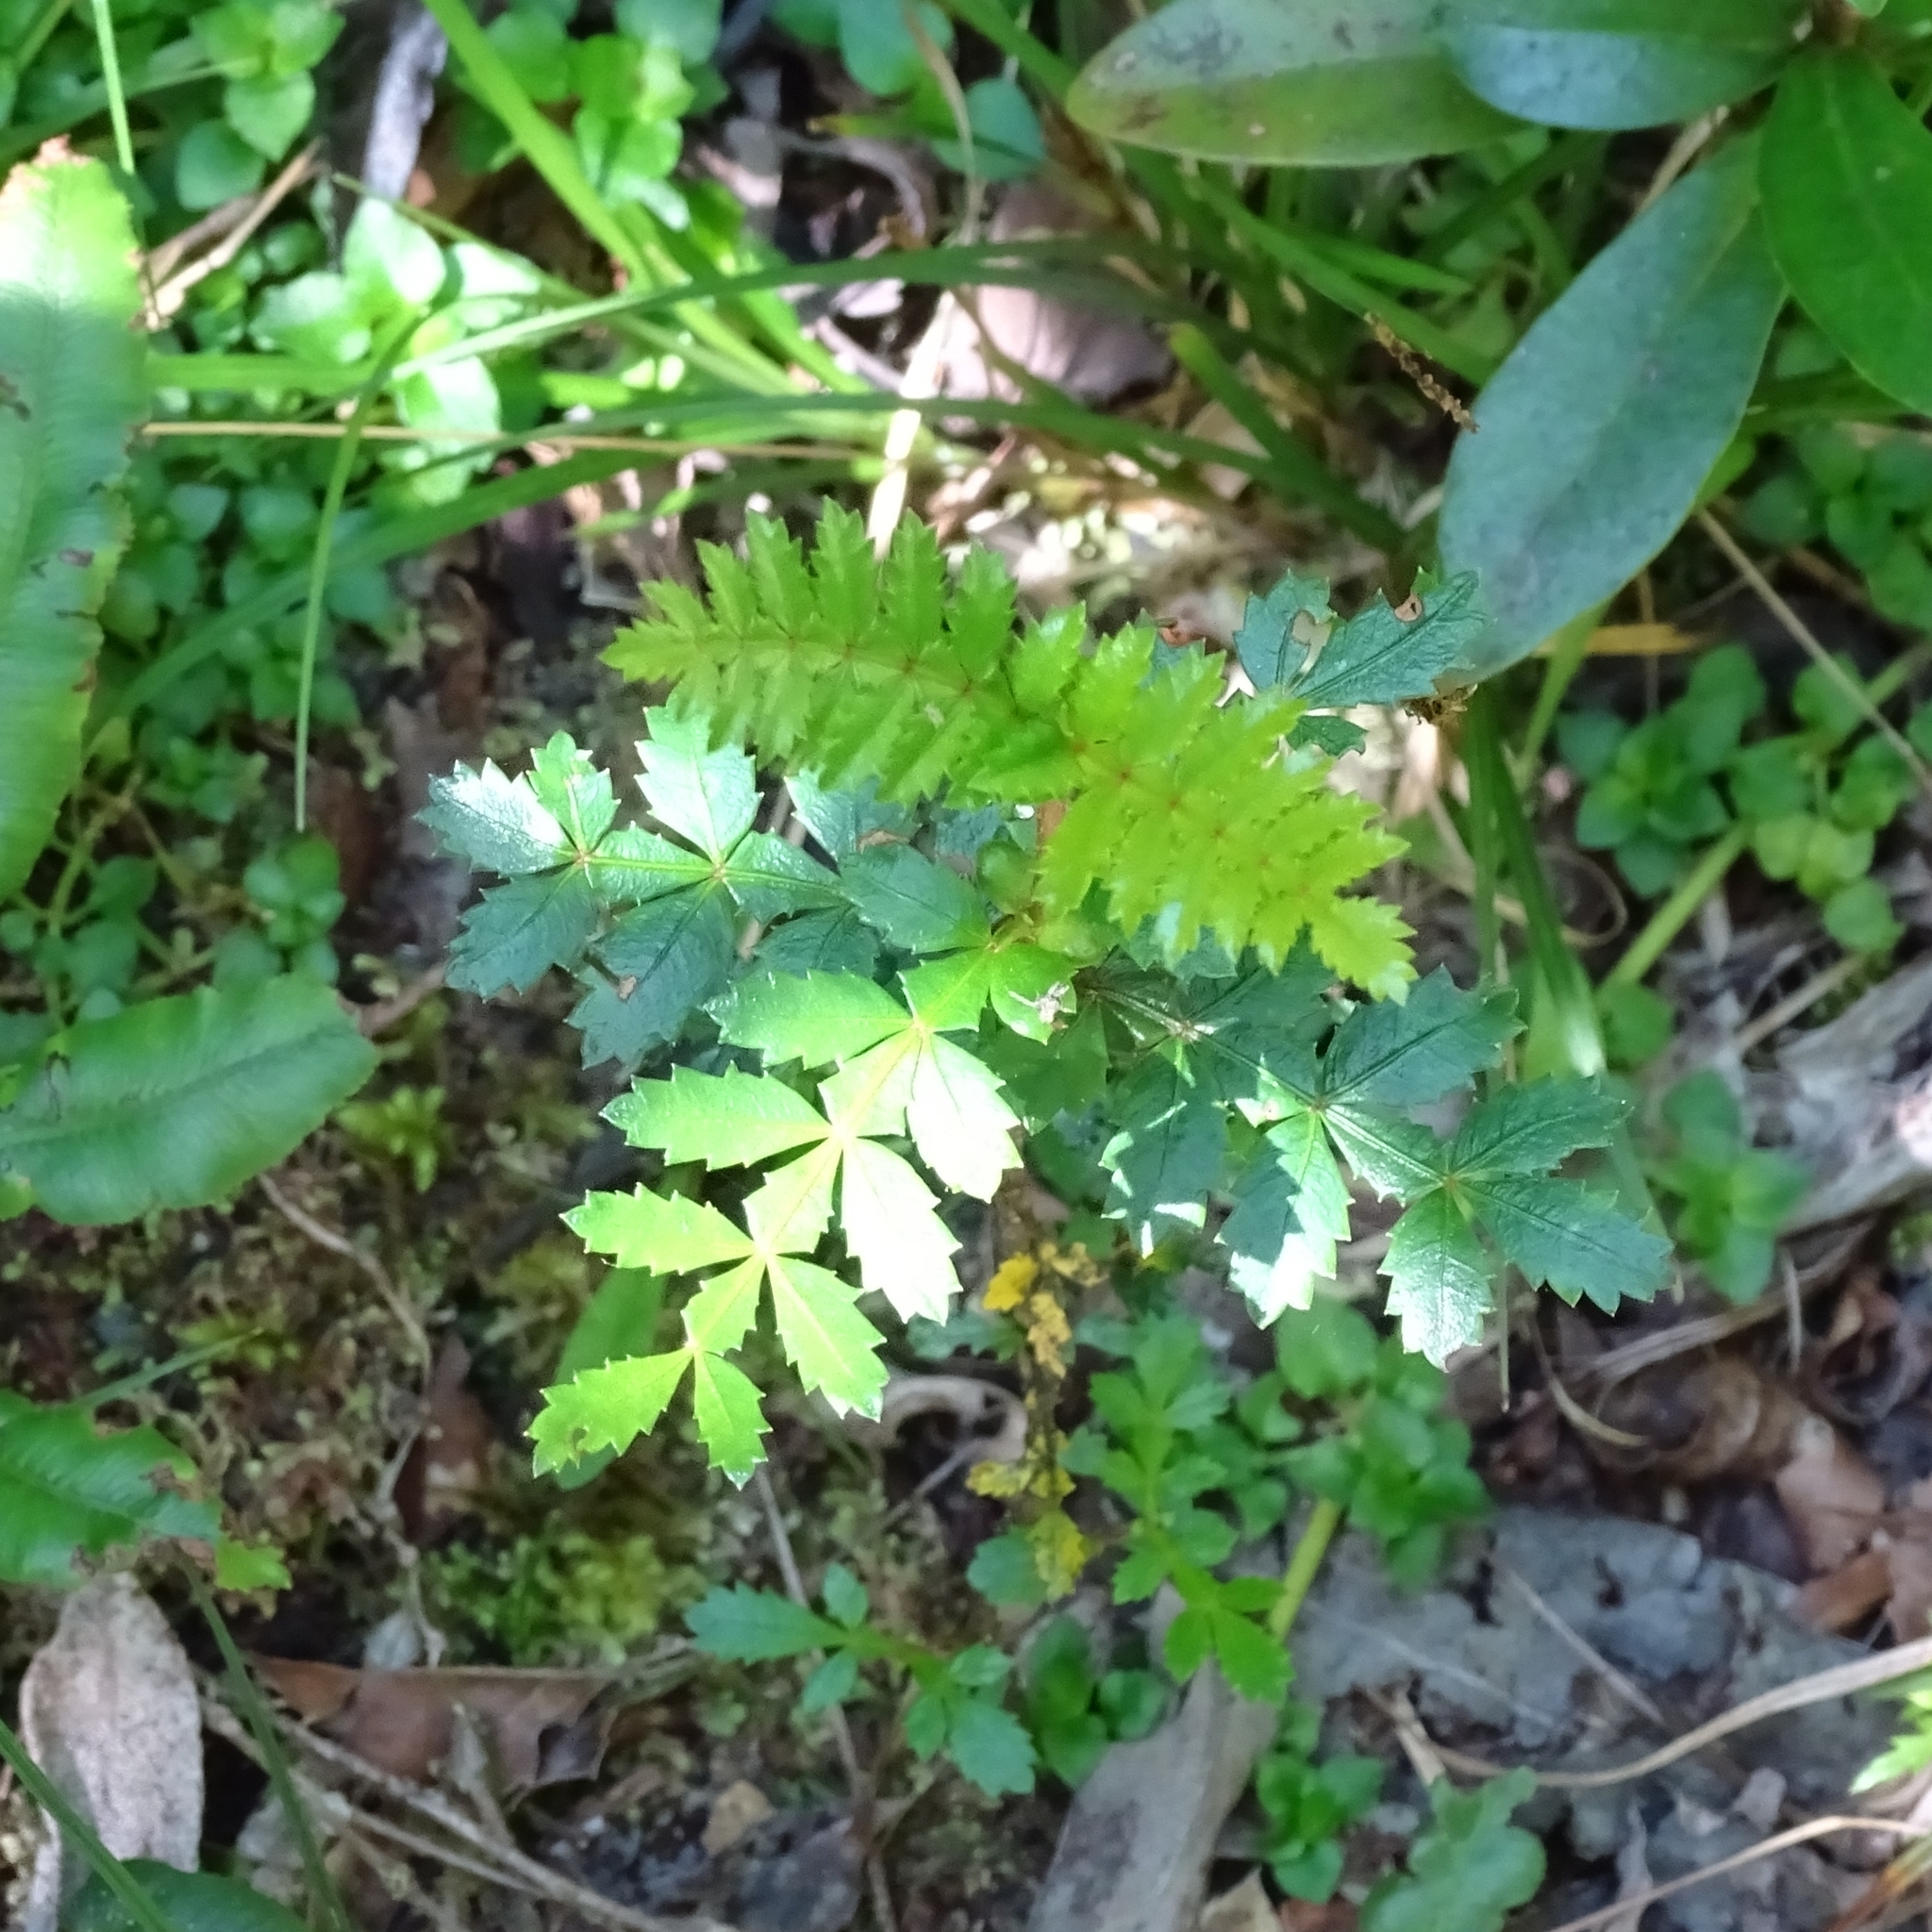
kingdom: Plantae
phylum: Tracheophyta
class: Magnoliopsida
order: Oxalidales
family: Cunoniaceae
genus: Weinmannia
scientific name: Weinmannia trichosperma
